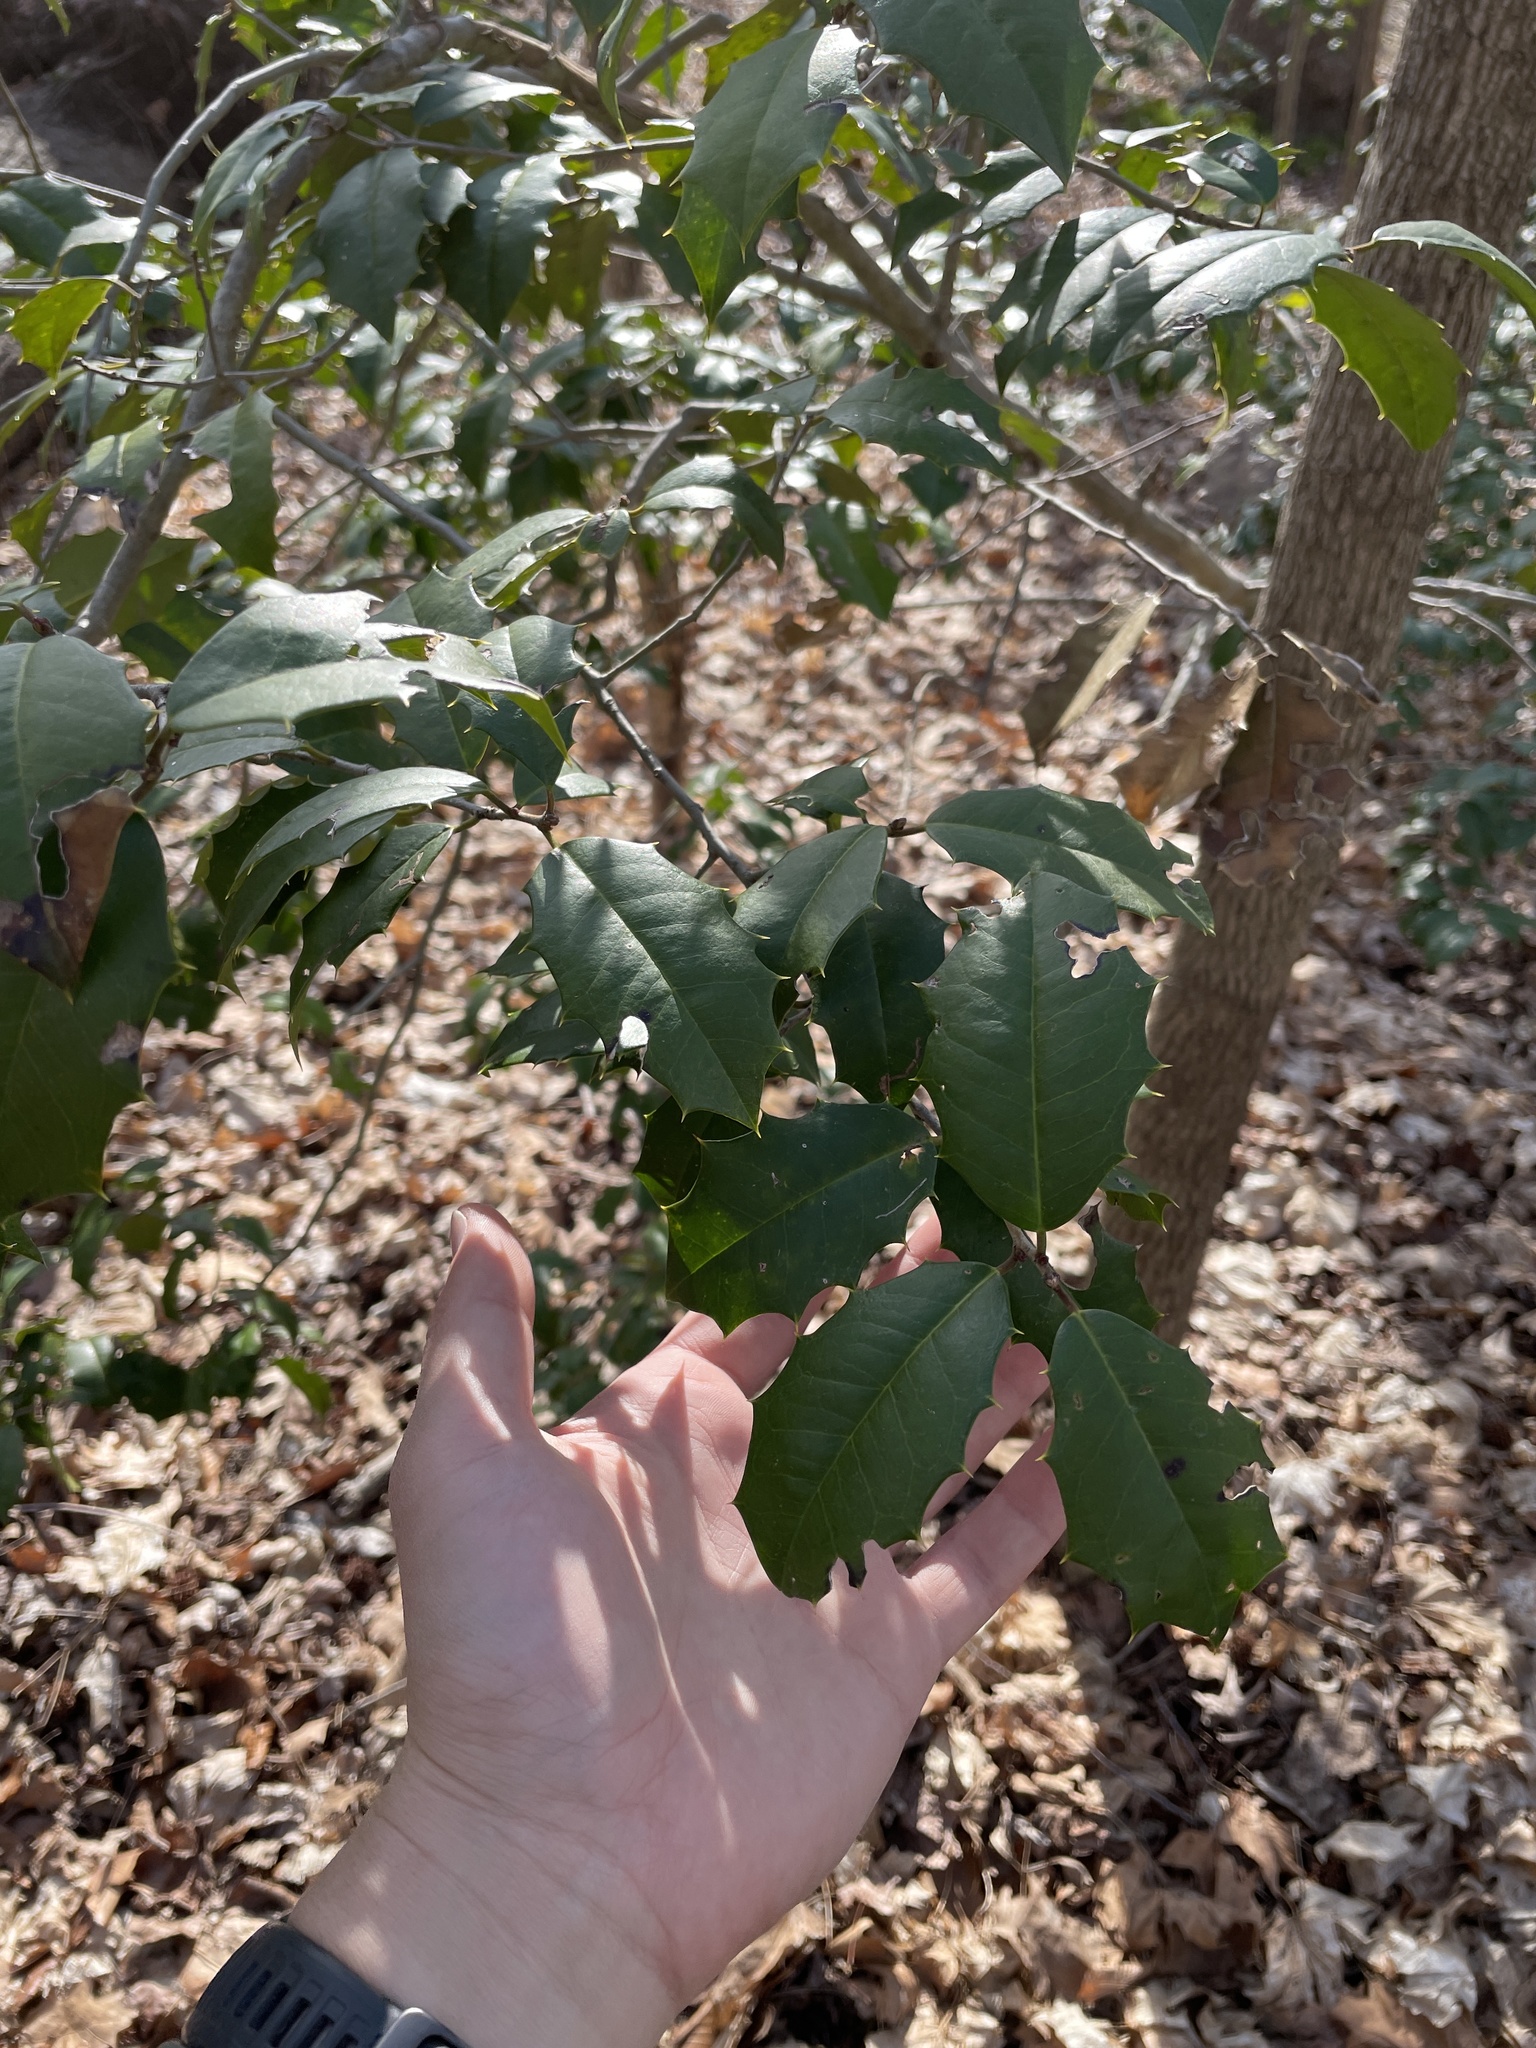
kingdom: Plantae
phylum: Tracheophyta
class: Magnoliopsida
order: Aquifoliales
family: Aquifoliaceae
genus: Ilex
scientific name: Ilex opaca
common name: American holly
